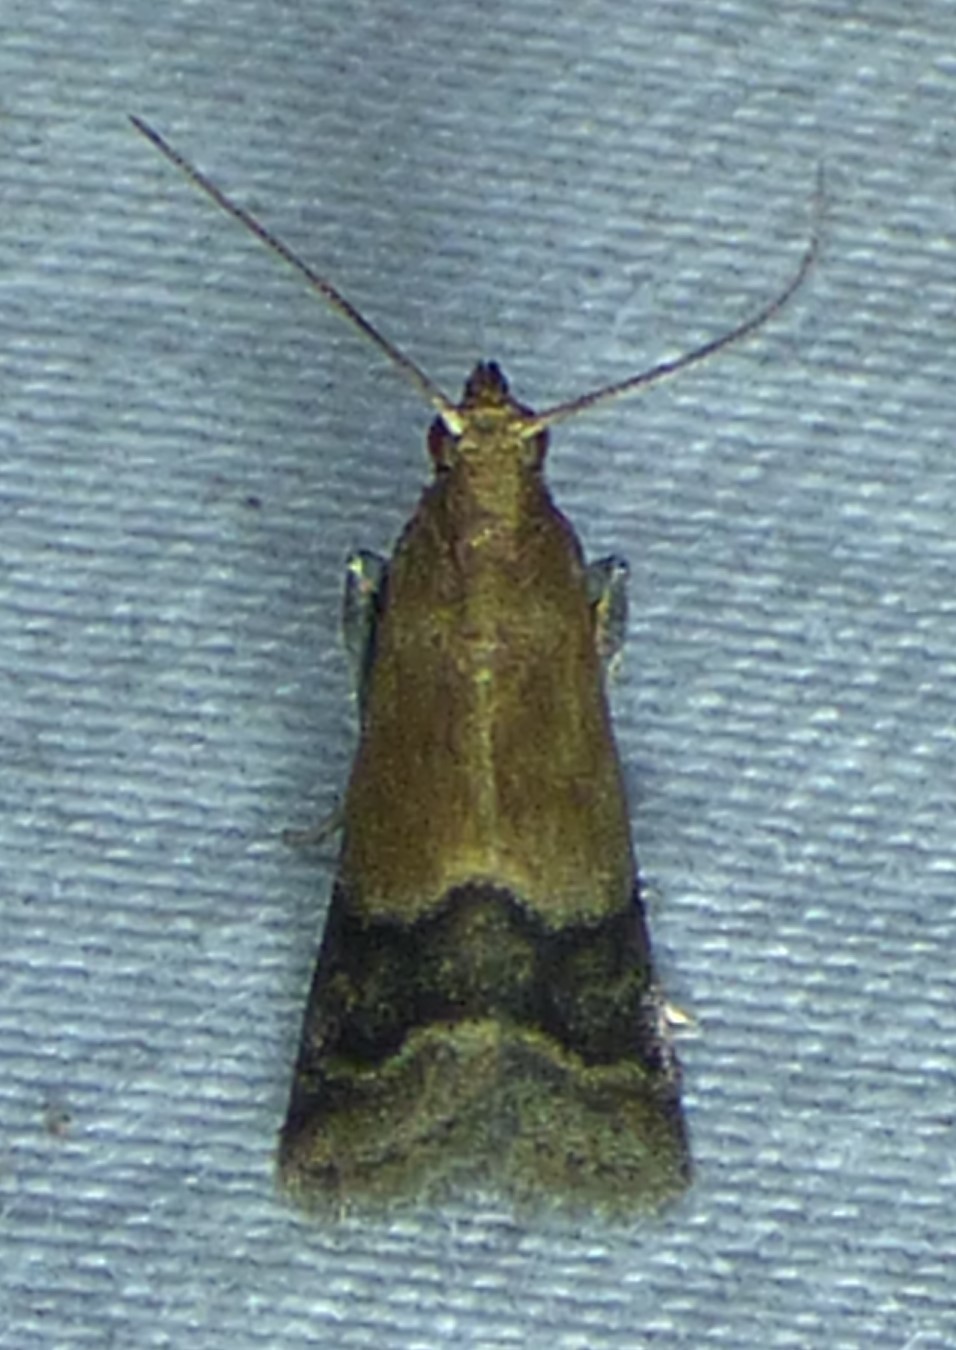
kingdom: Animalia
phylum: Arthropoda
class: Insecta
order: Lepidoptera
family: Pyralidae
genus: Eulogia
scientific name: Eulogia ochrifrontella
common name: Broad-banded eulogia moth
